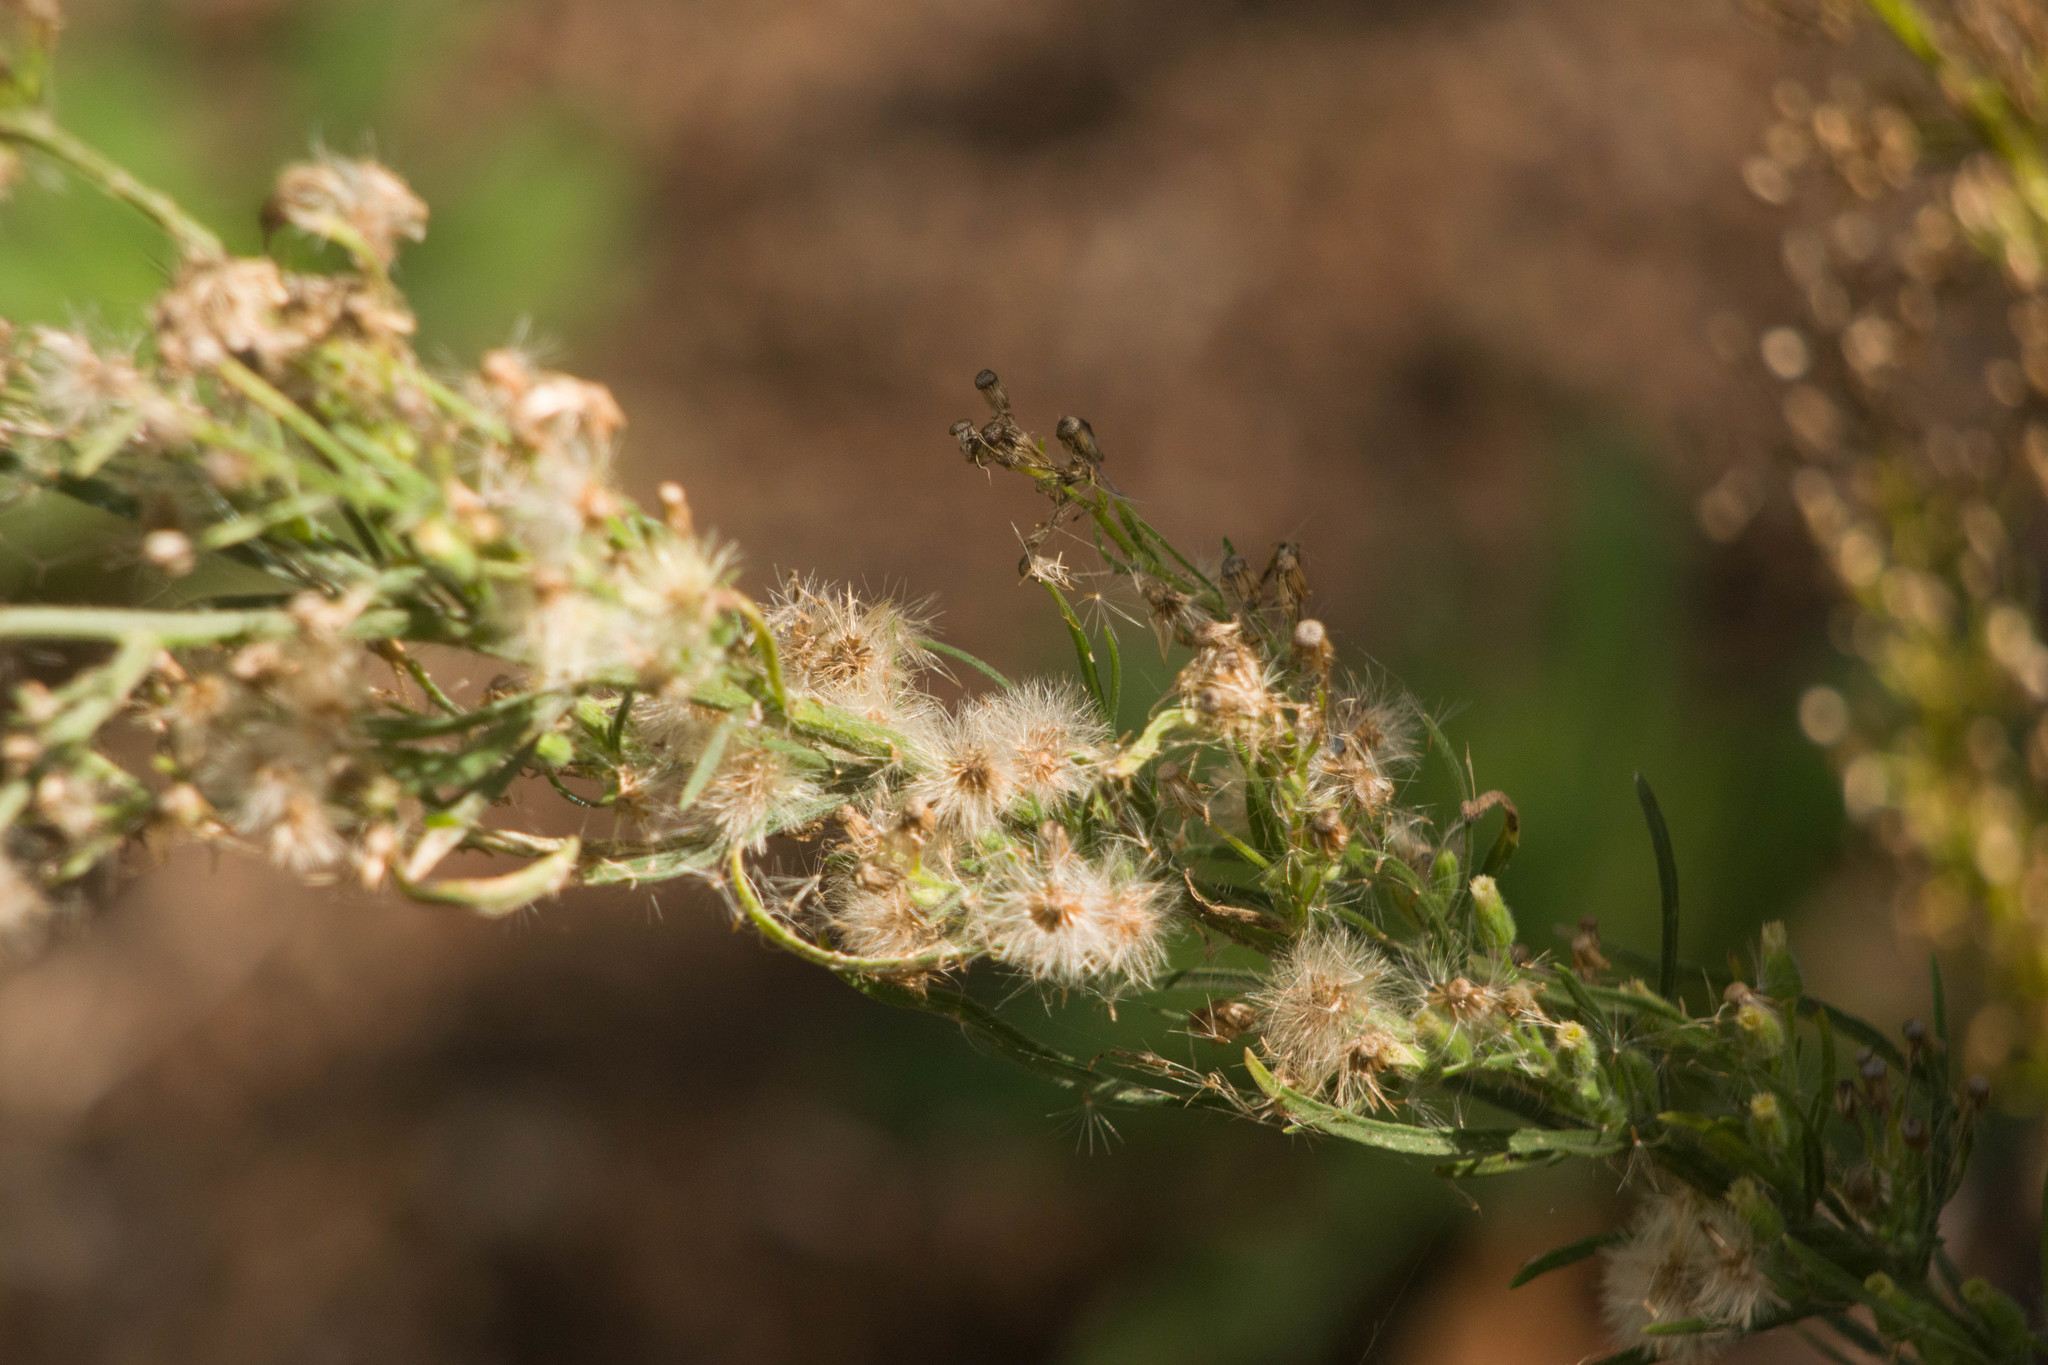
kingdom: Plantae
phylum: Tracheophyta
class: Magnoliopsida
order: Asterales
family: Asteraceae
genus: Erigeron
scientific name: Erigeron sumatrensis
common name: Daisy
